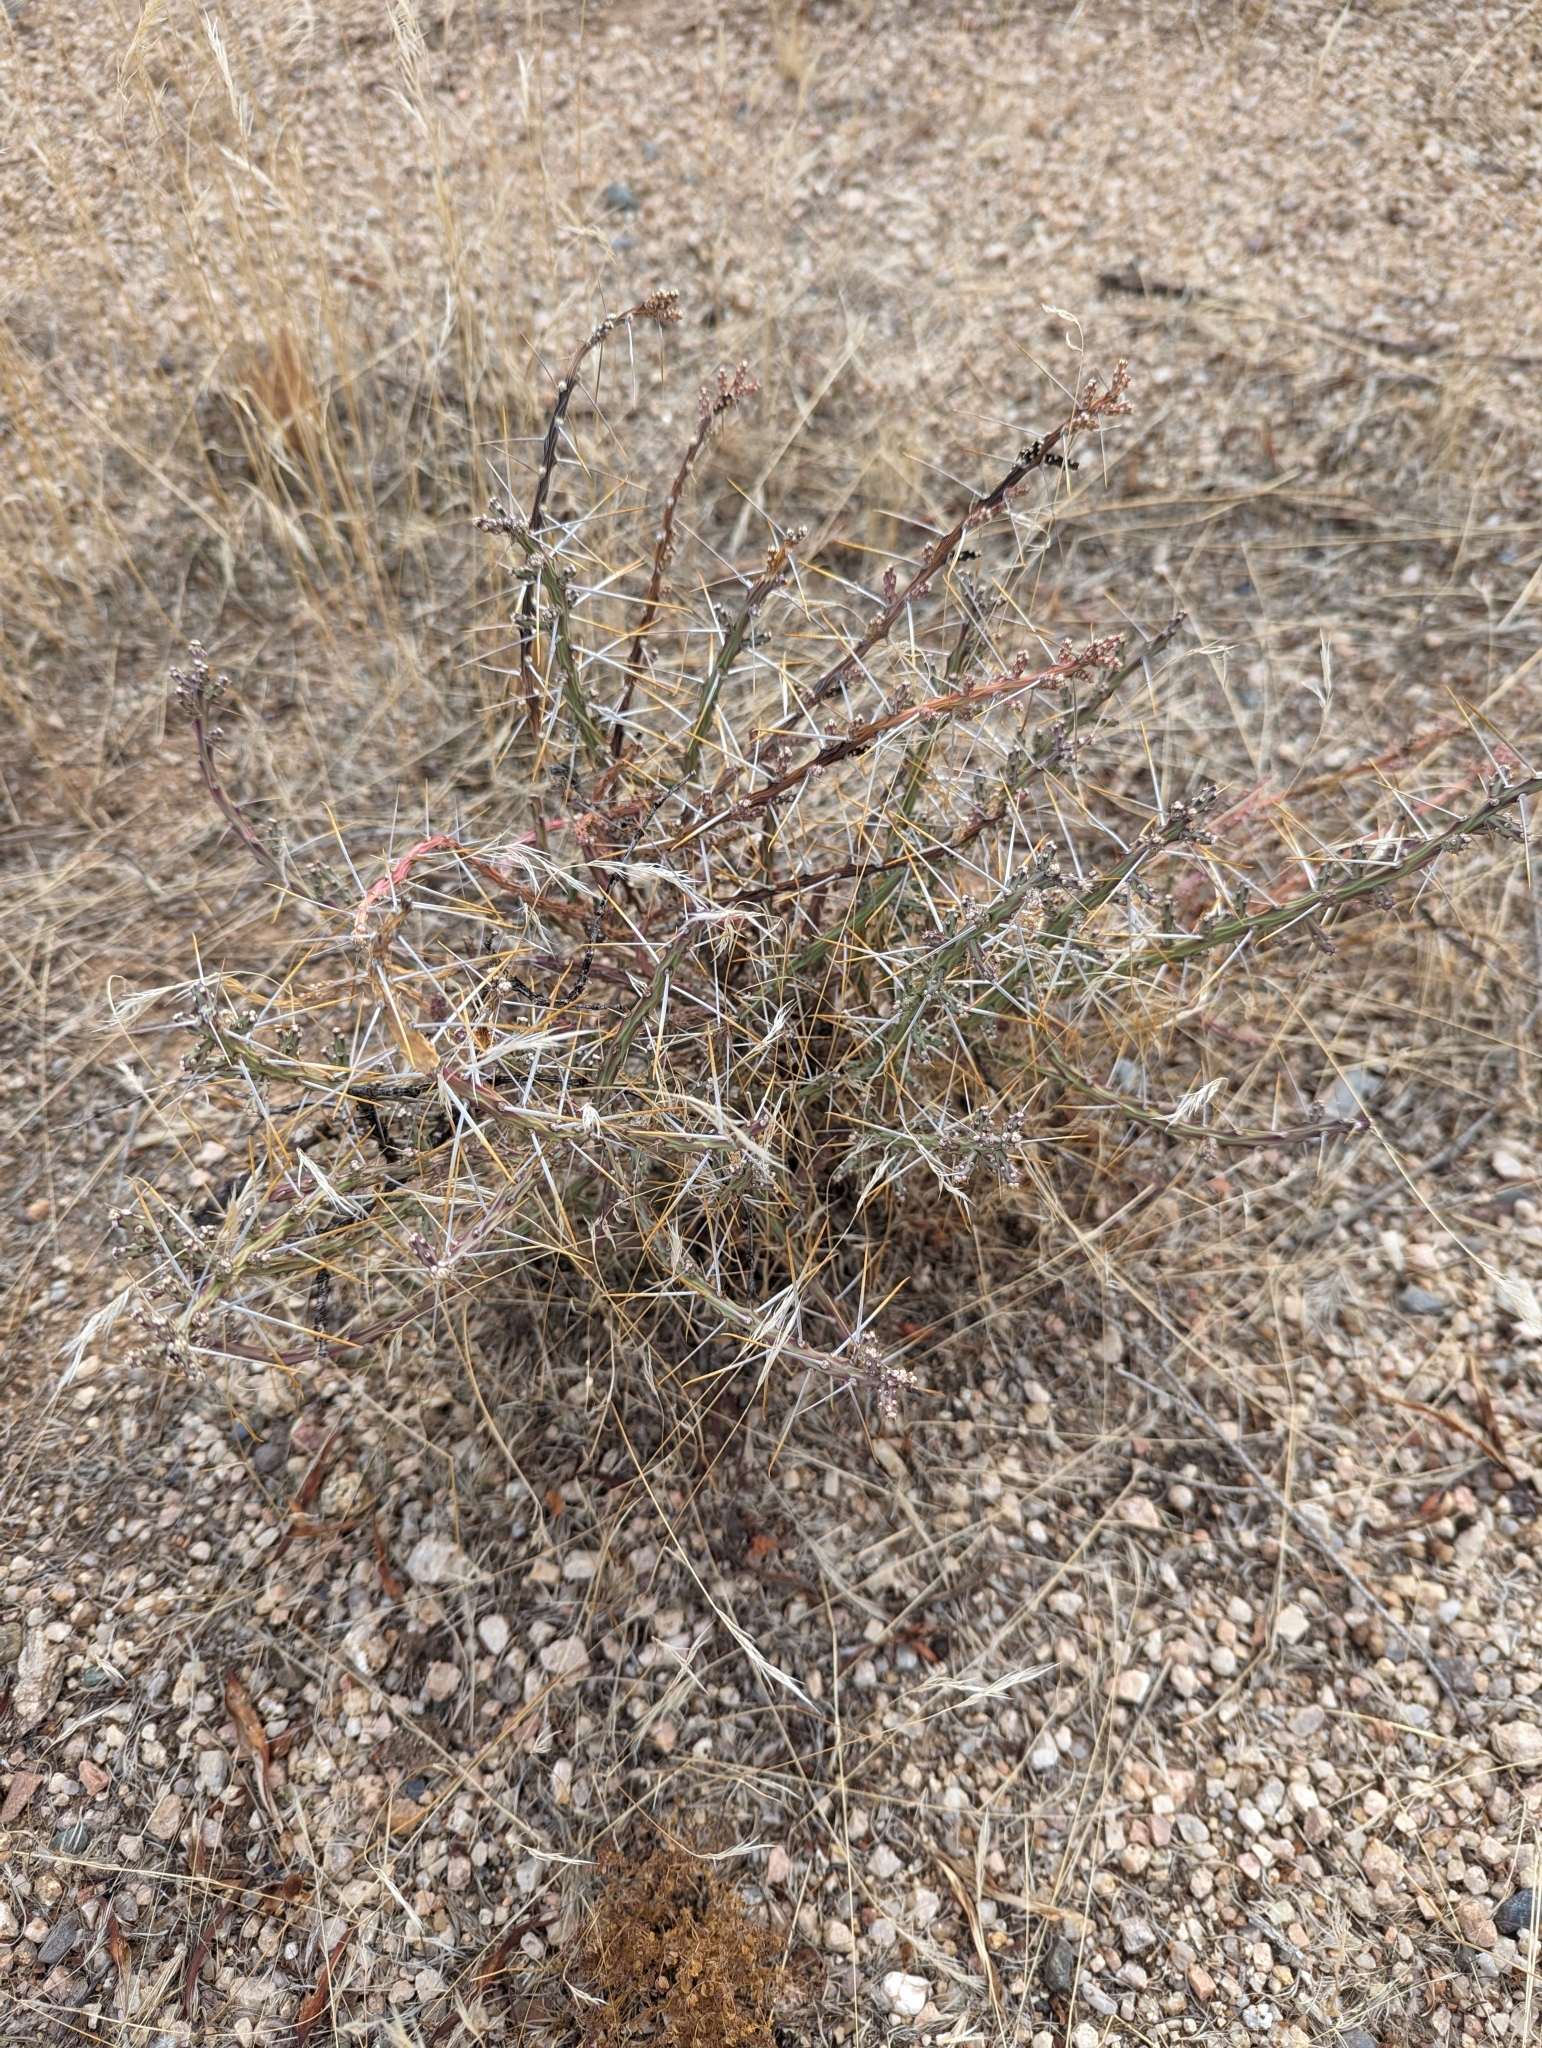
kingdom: Plantae
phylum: Tracheophyta
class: Magnoliopsida
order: Caryophyllales
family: Cactaceae
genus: Cylindropuntia
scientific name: Cylindropuntia leptocaulis
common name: Christmas cactus
